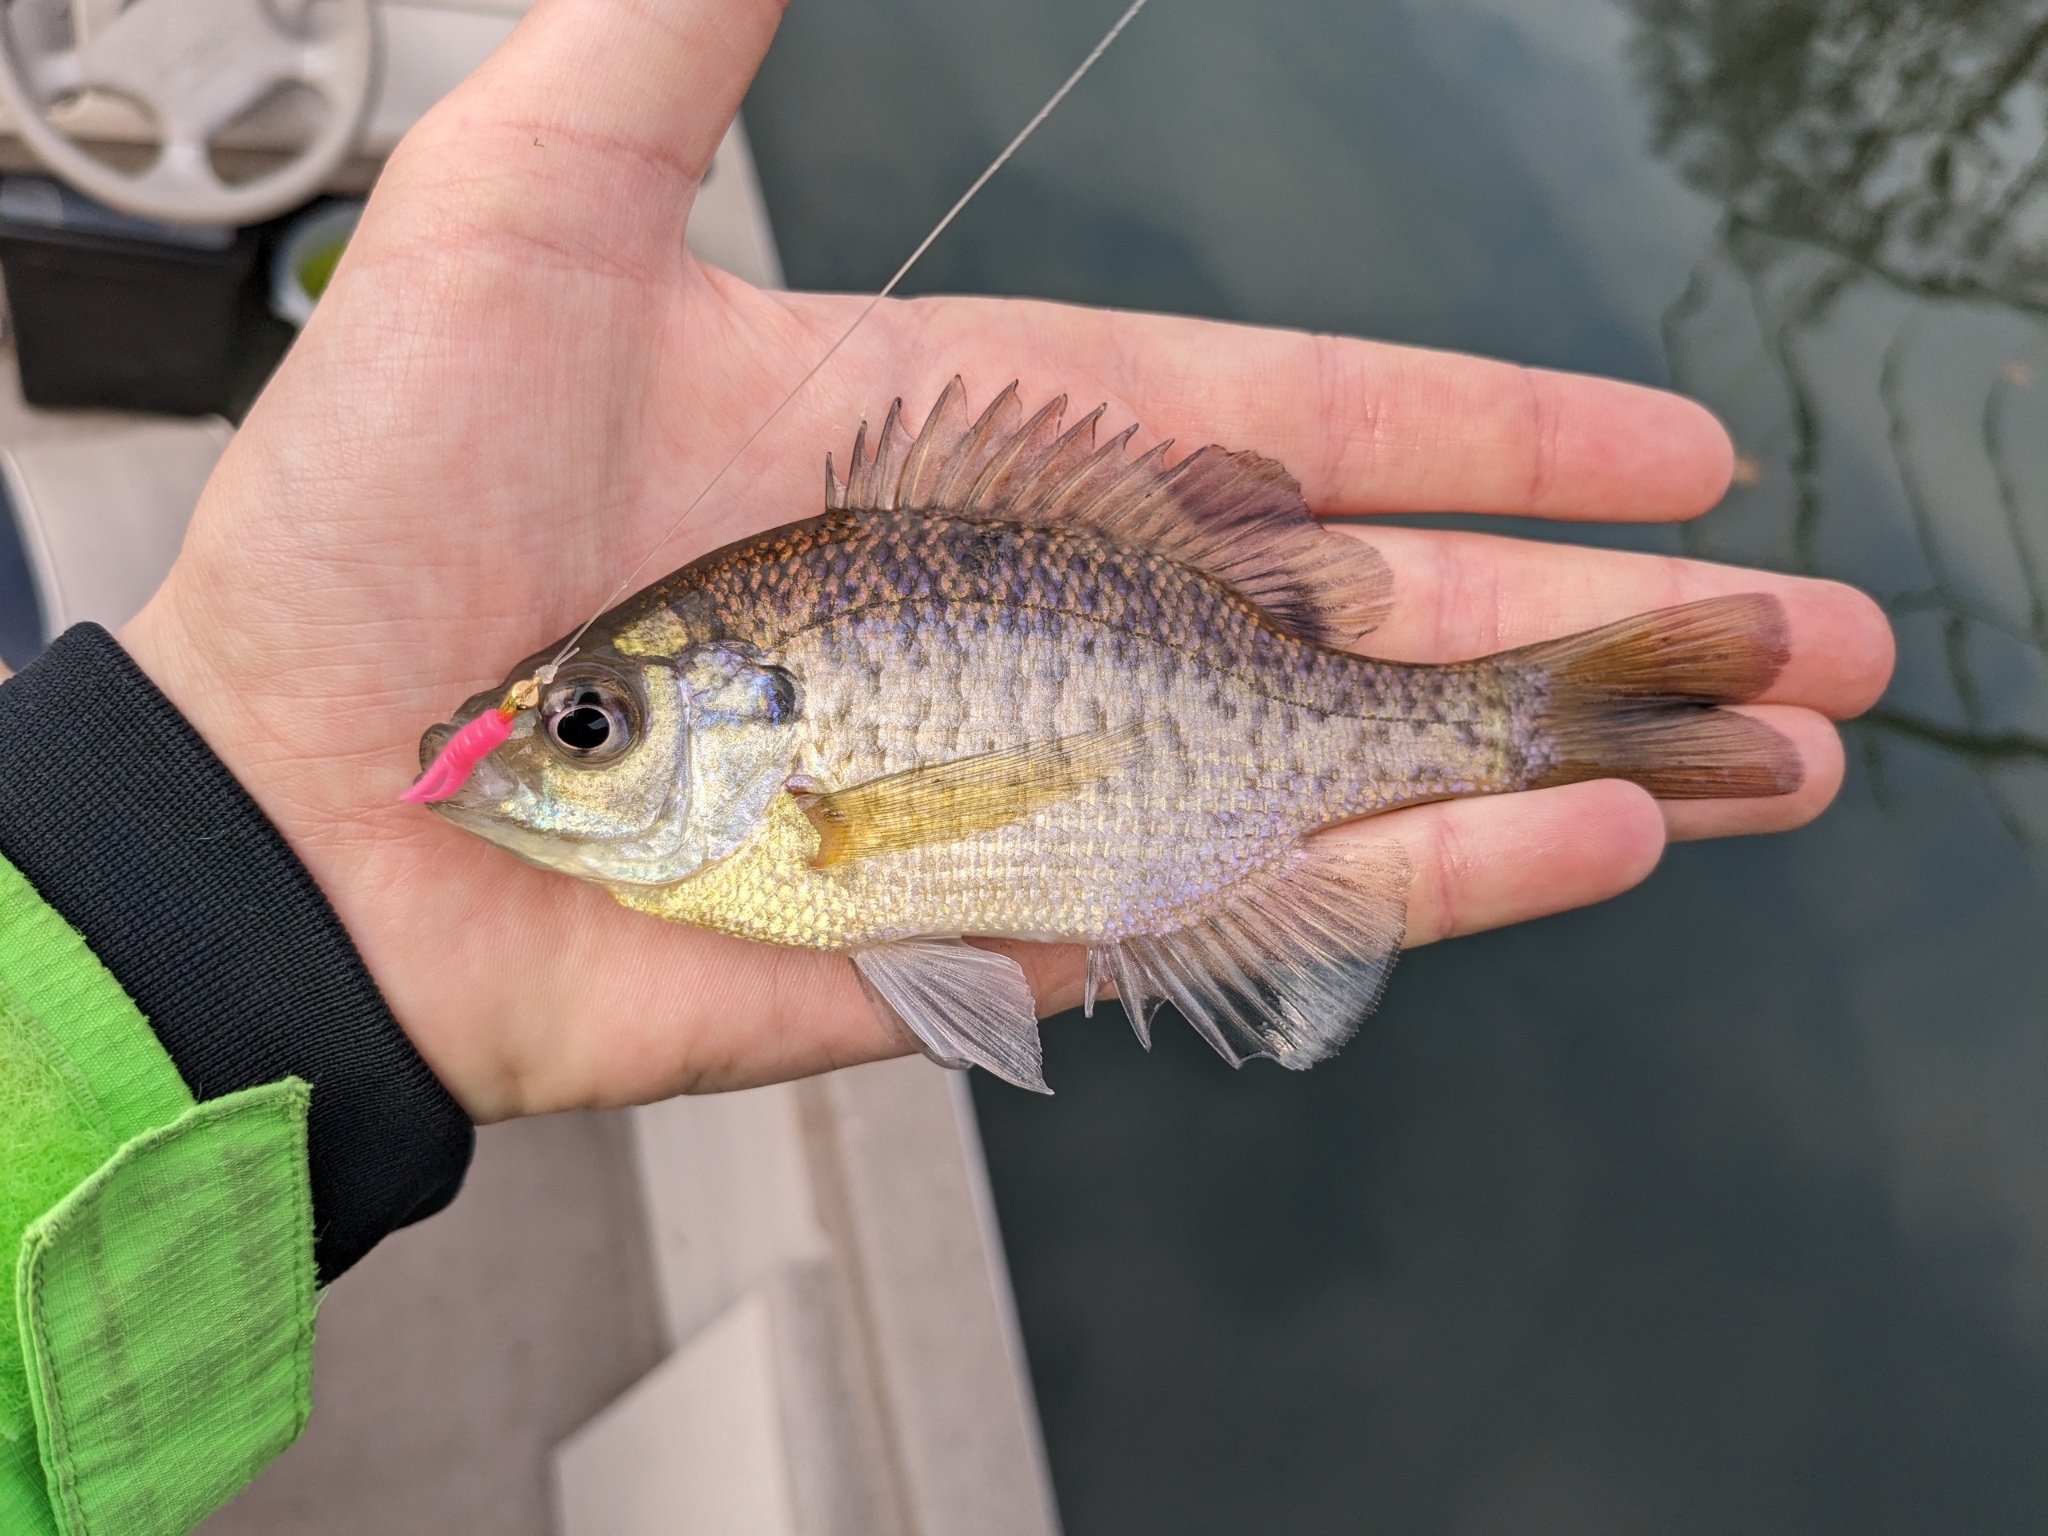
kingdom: Animalia
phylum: Chordata
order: Perciformes
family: Centrarchidae
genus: Lepomis
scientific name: Lepomis macrochirus
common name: Bluegill
